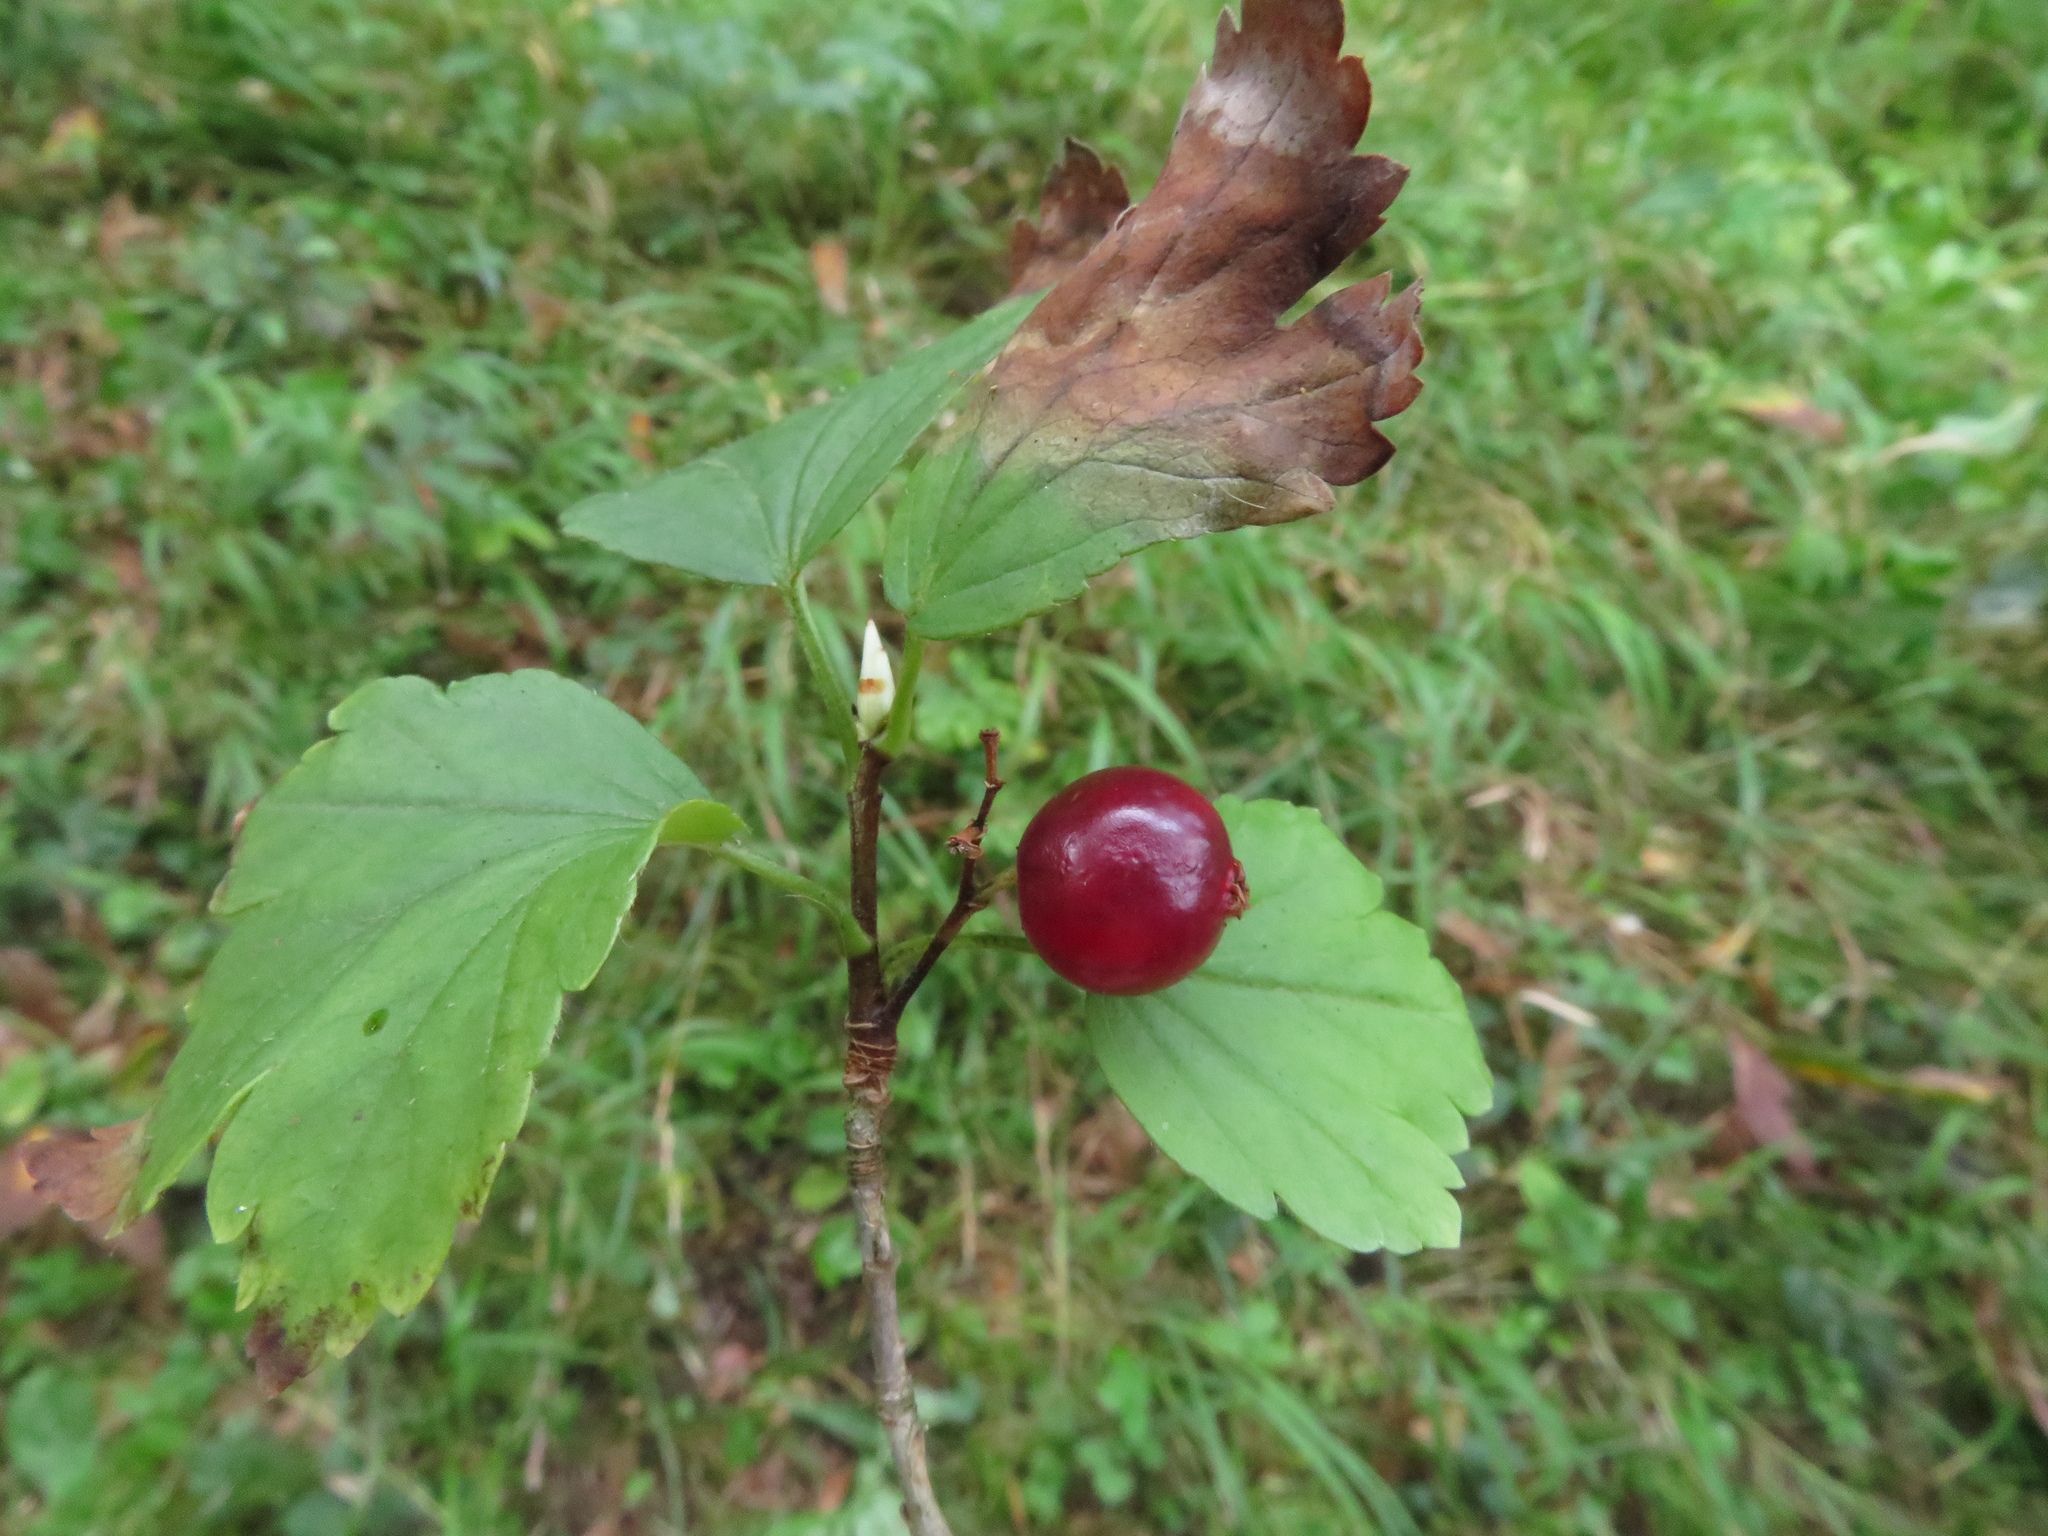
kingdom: Plantae
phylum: Tracheophyta
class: Magnoliopsida
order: Saxifragales
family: Grossulariaceae
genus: Ribes
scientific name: Ribes alpinum
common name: Alpine currant
